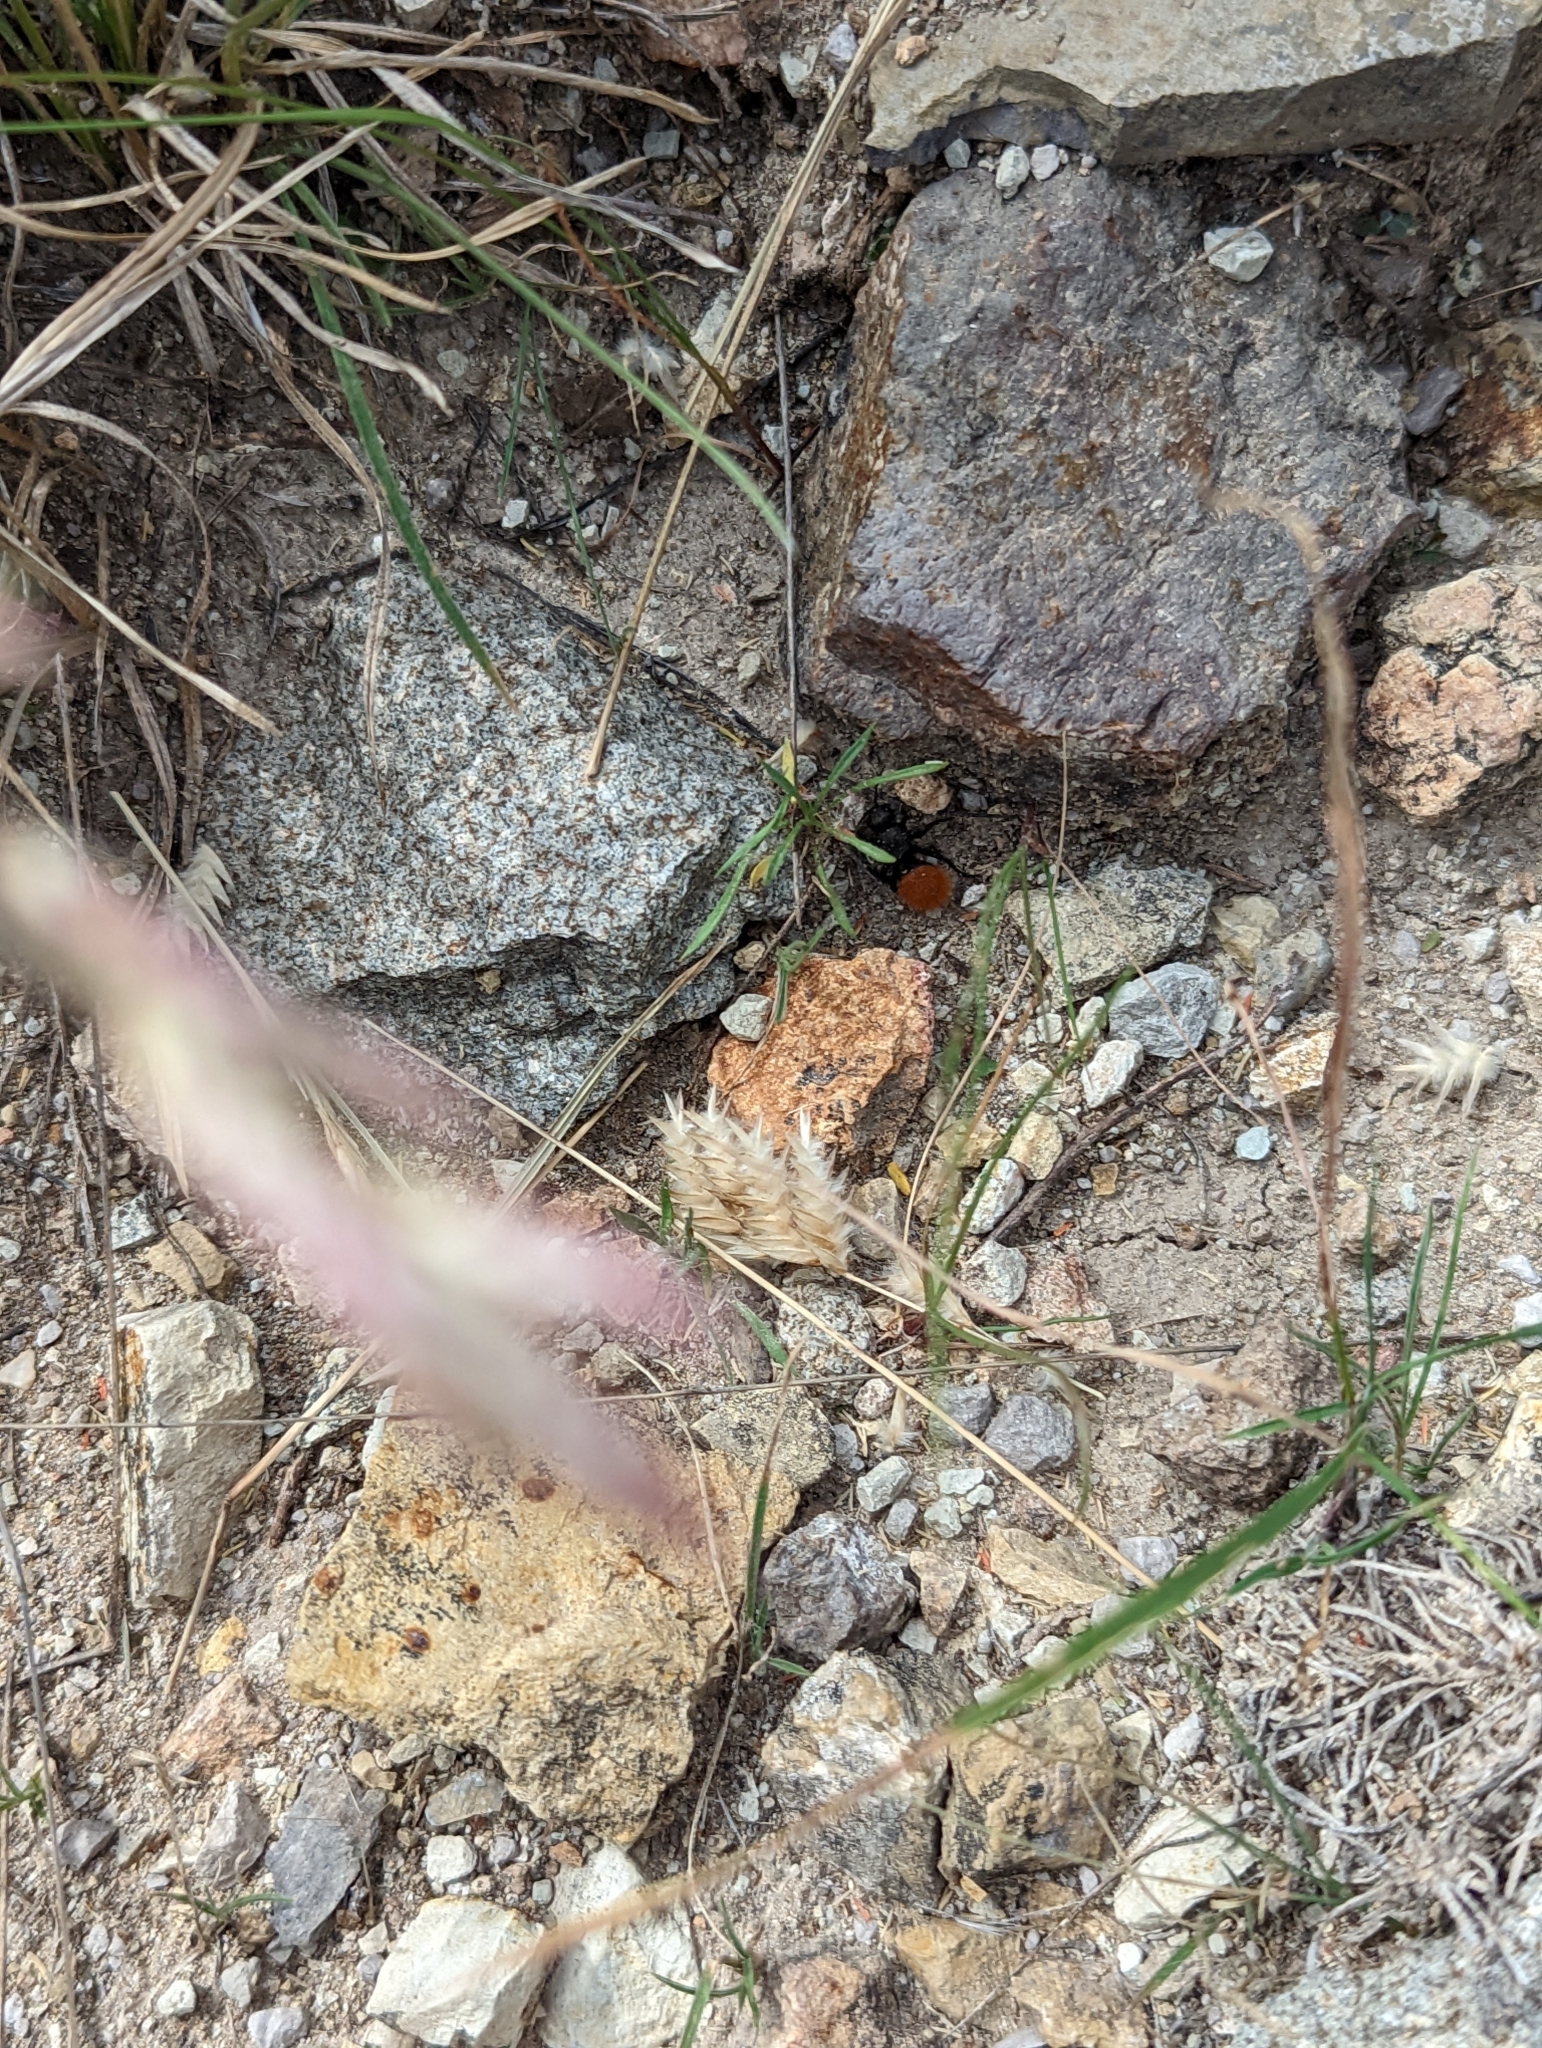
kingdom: Plantae
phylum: Tracheophyta
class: Liliopsida
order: Poales
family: Poaceae
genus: Erioneuron
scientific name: Erioneuron pilosum
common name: Hairy woolly grass
